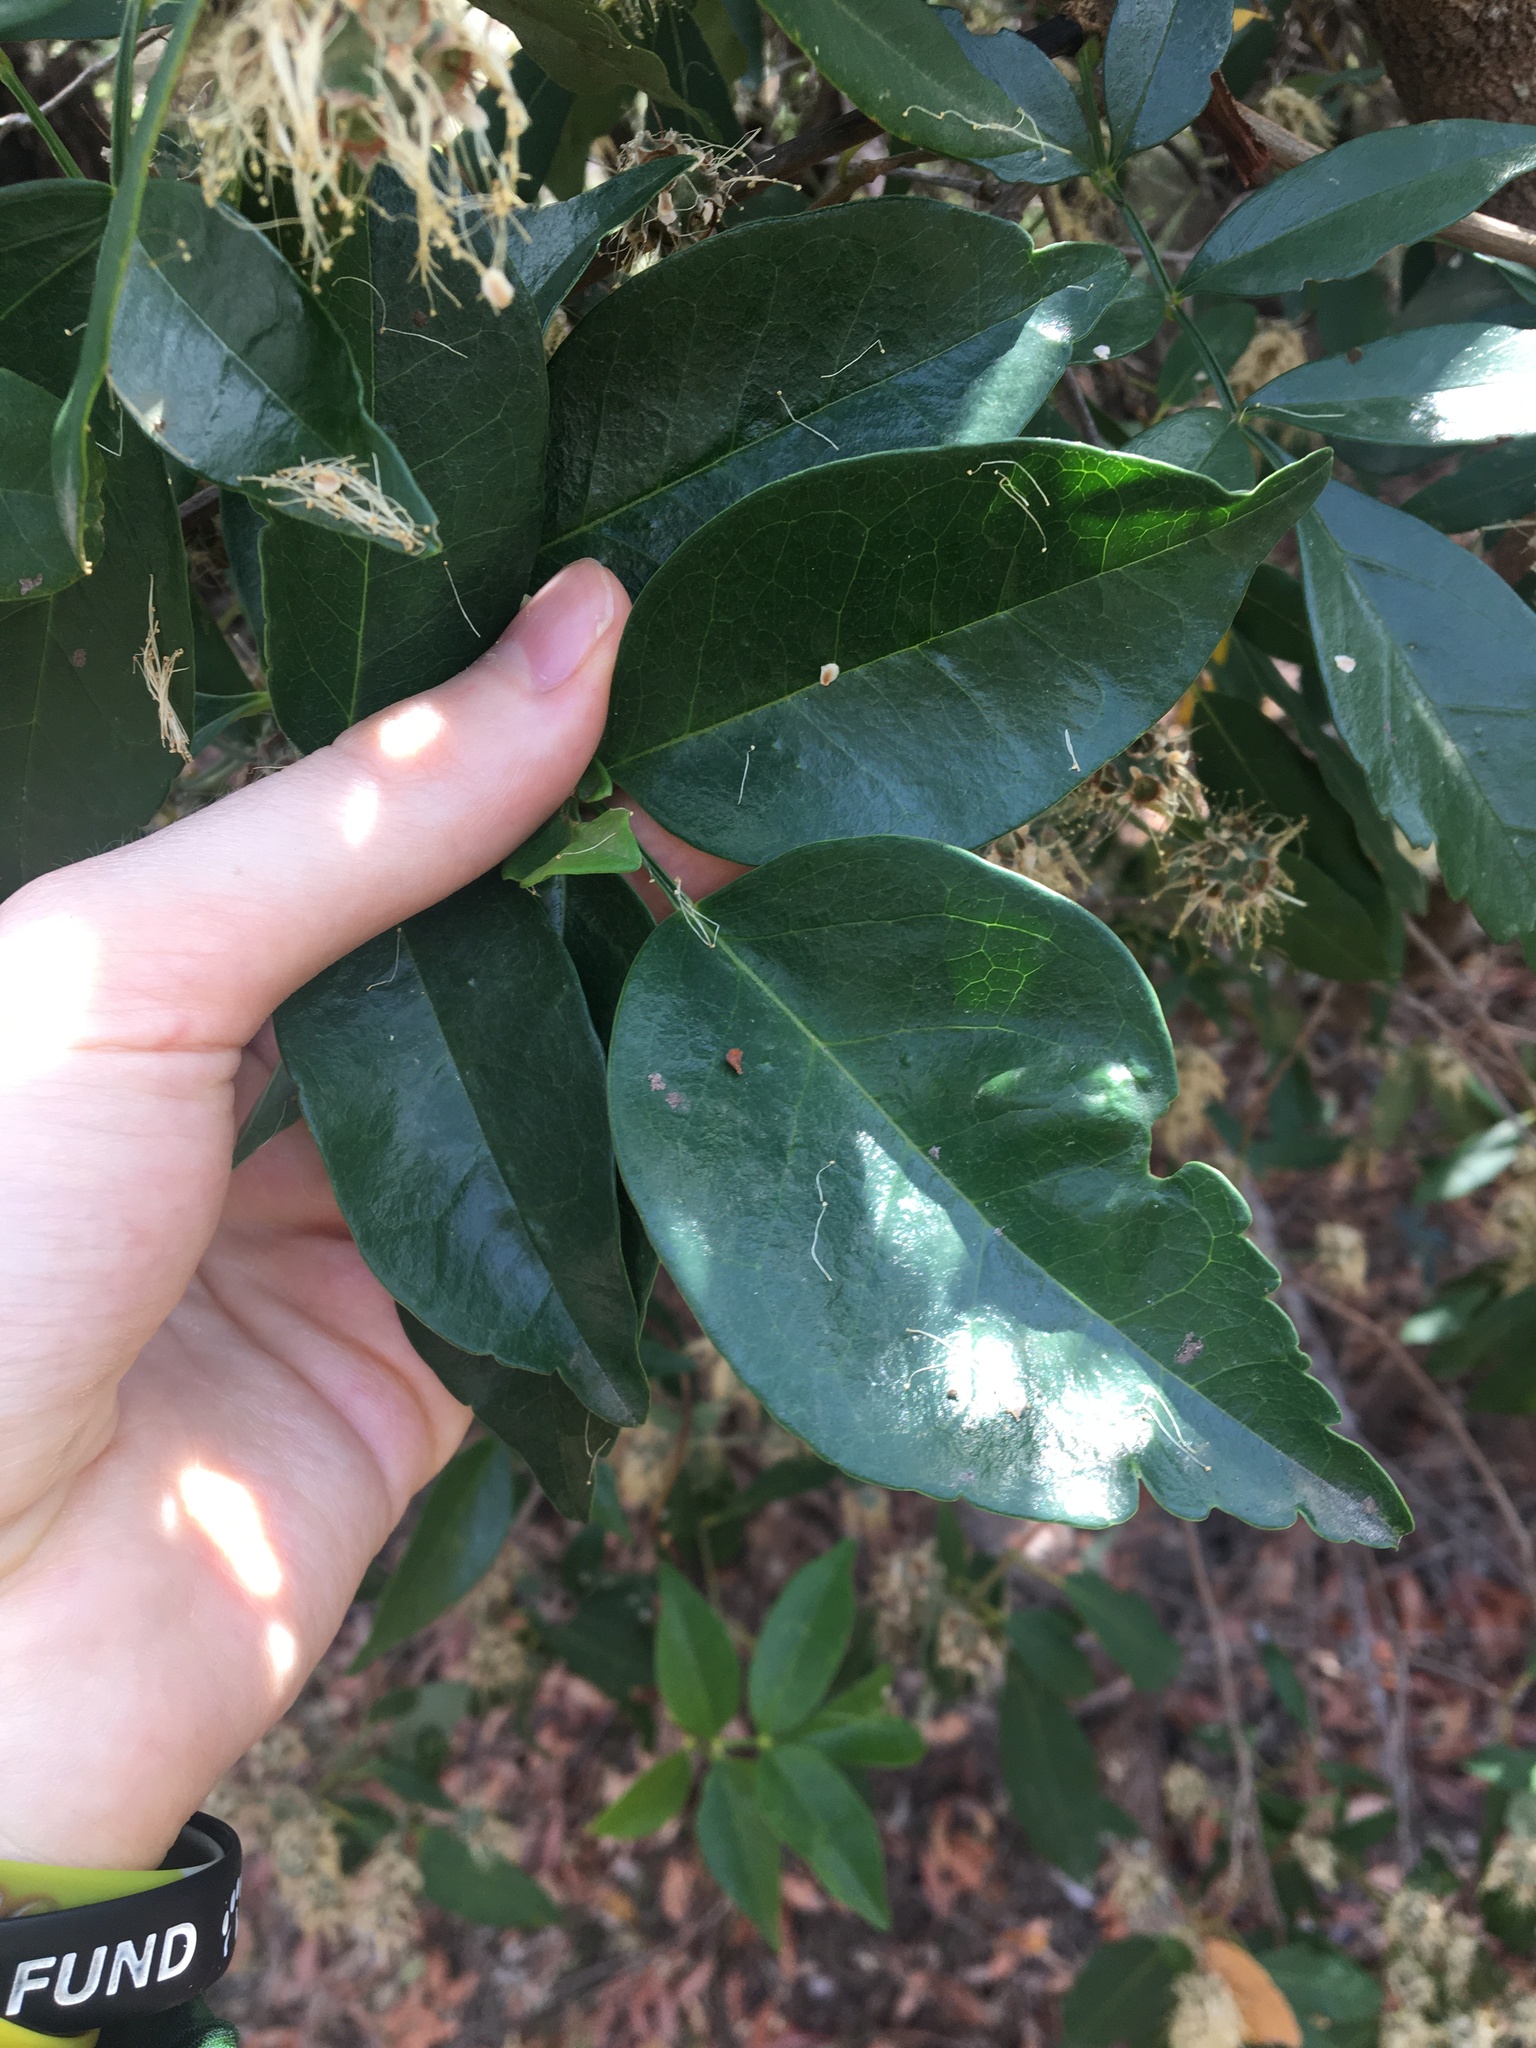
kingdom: Plantae
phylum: Tracheophyta
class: Magnoliopsida
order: Myrtales
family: Myrtaceae
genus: Syncarpia
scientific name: Syncarpia glomulifera
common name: Turpentine tree
